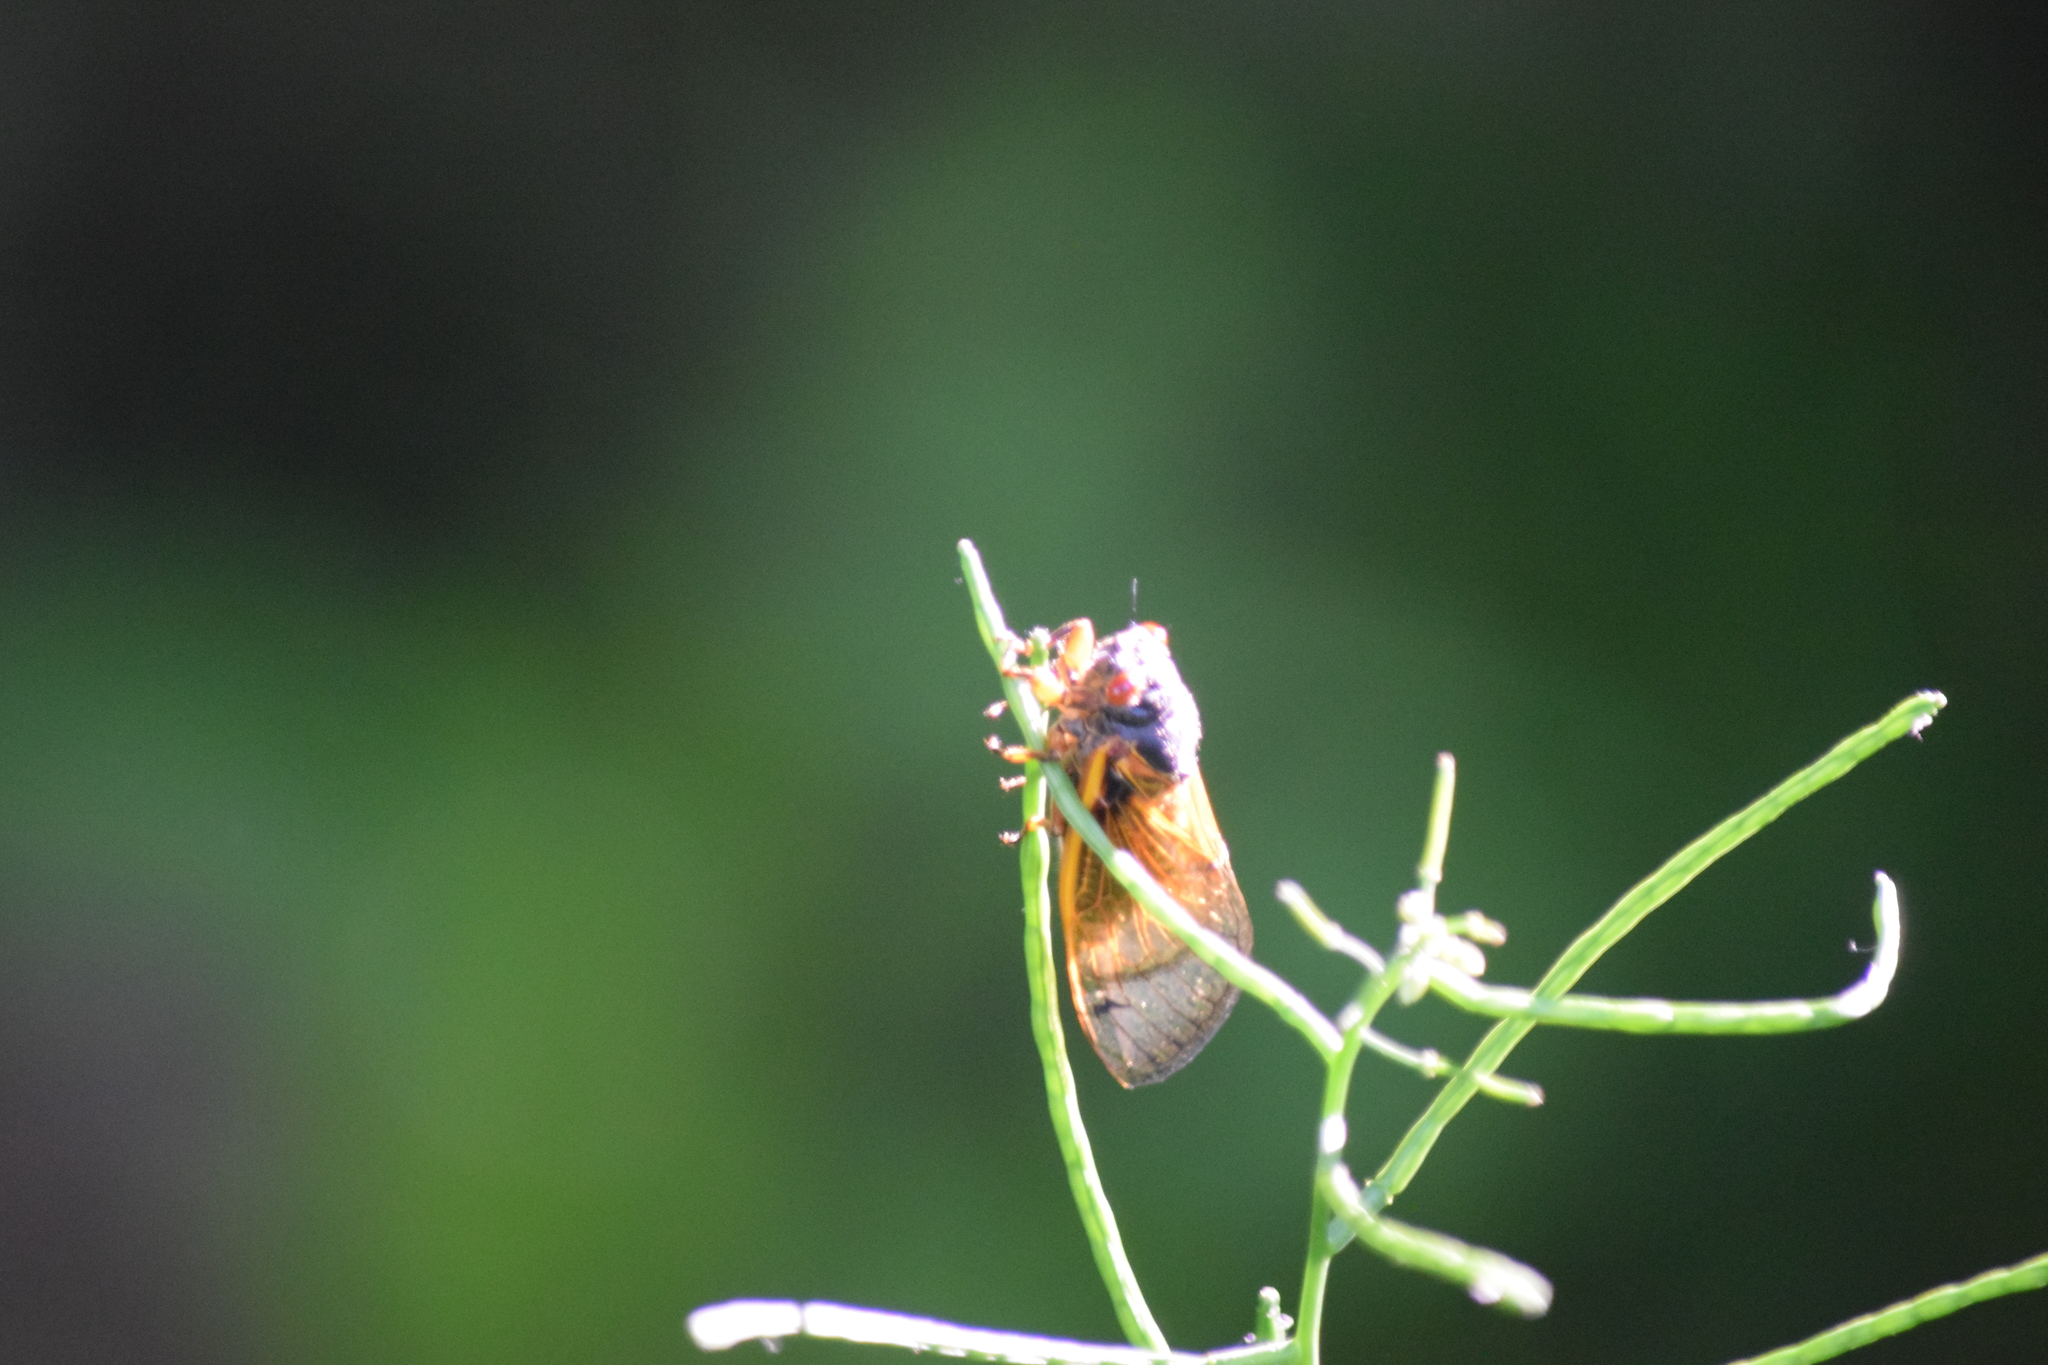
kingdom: Animalia
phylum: Arthropoda
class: Insecta
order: Hemiptera
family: Cicadidae
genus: Magicicada
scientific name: Magicicada
